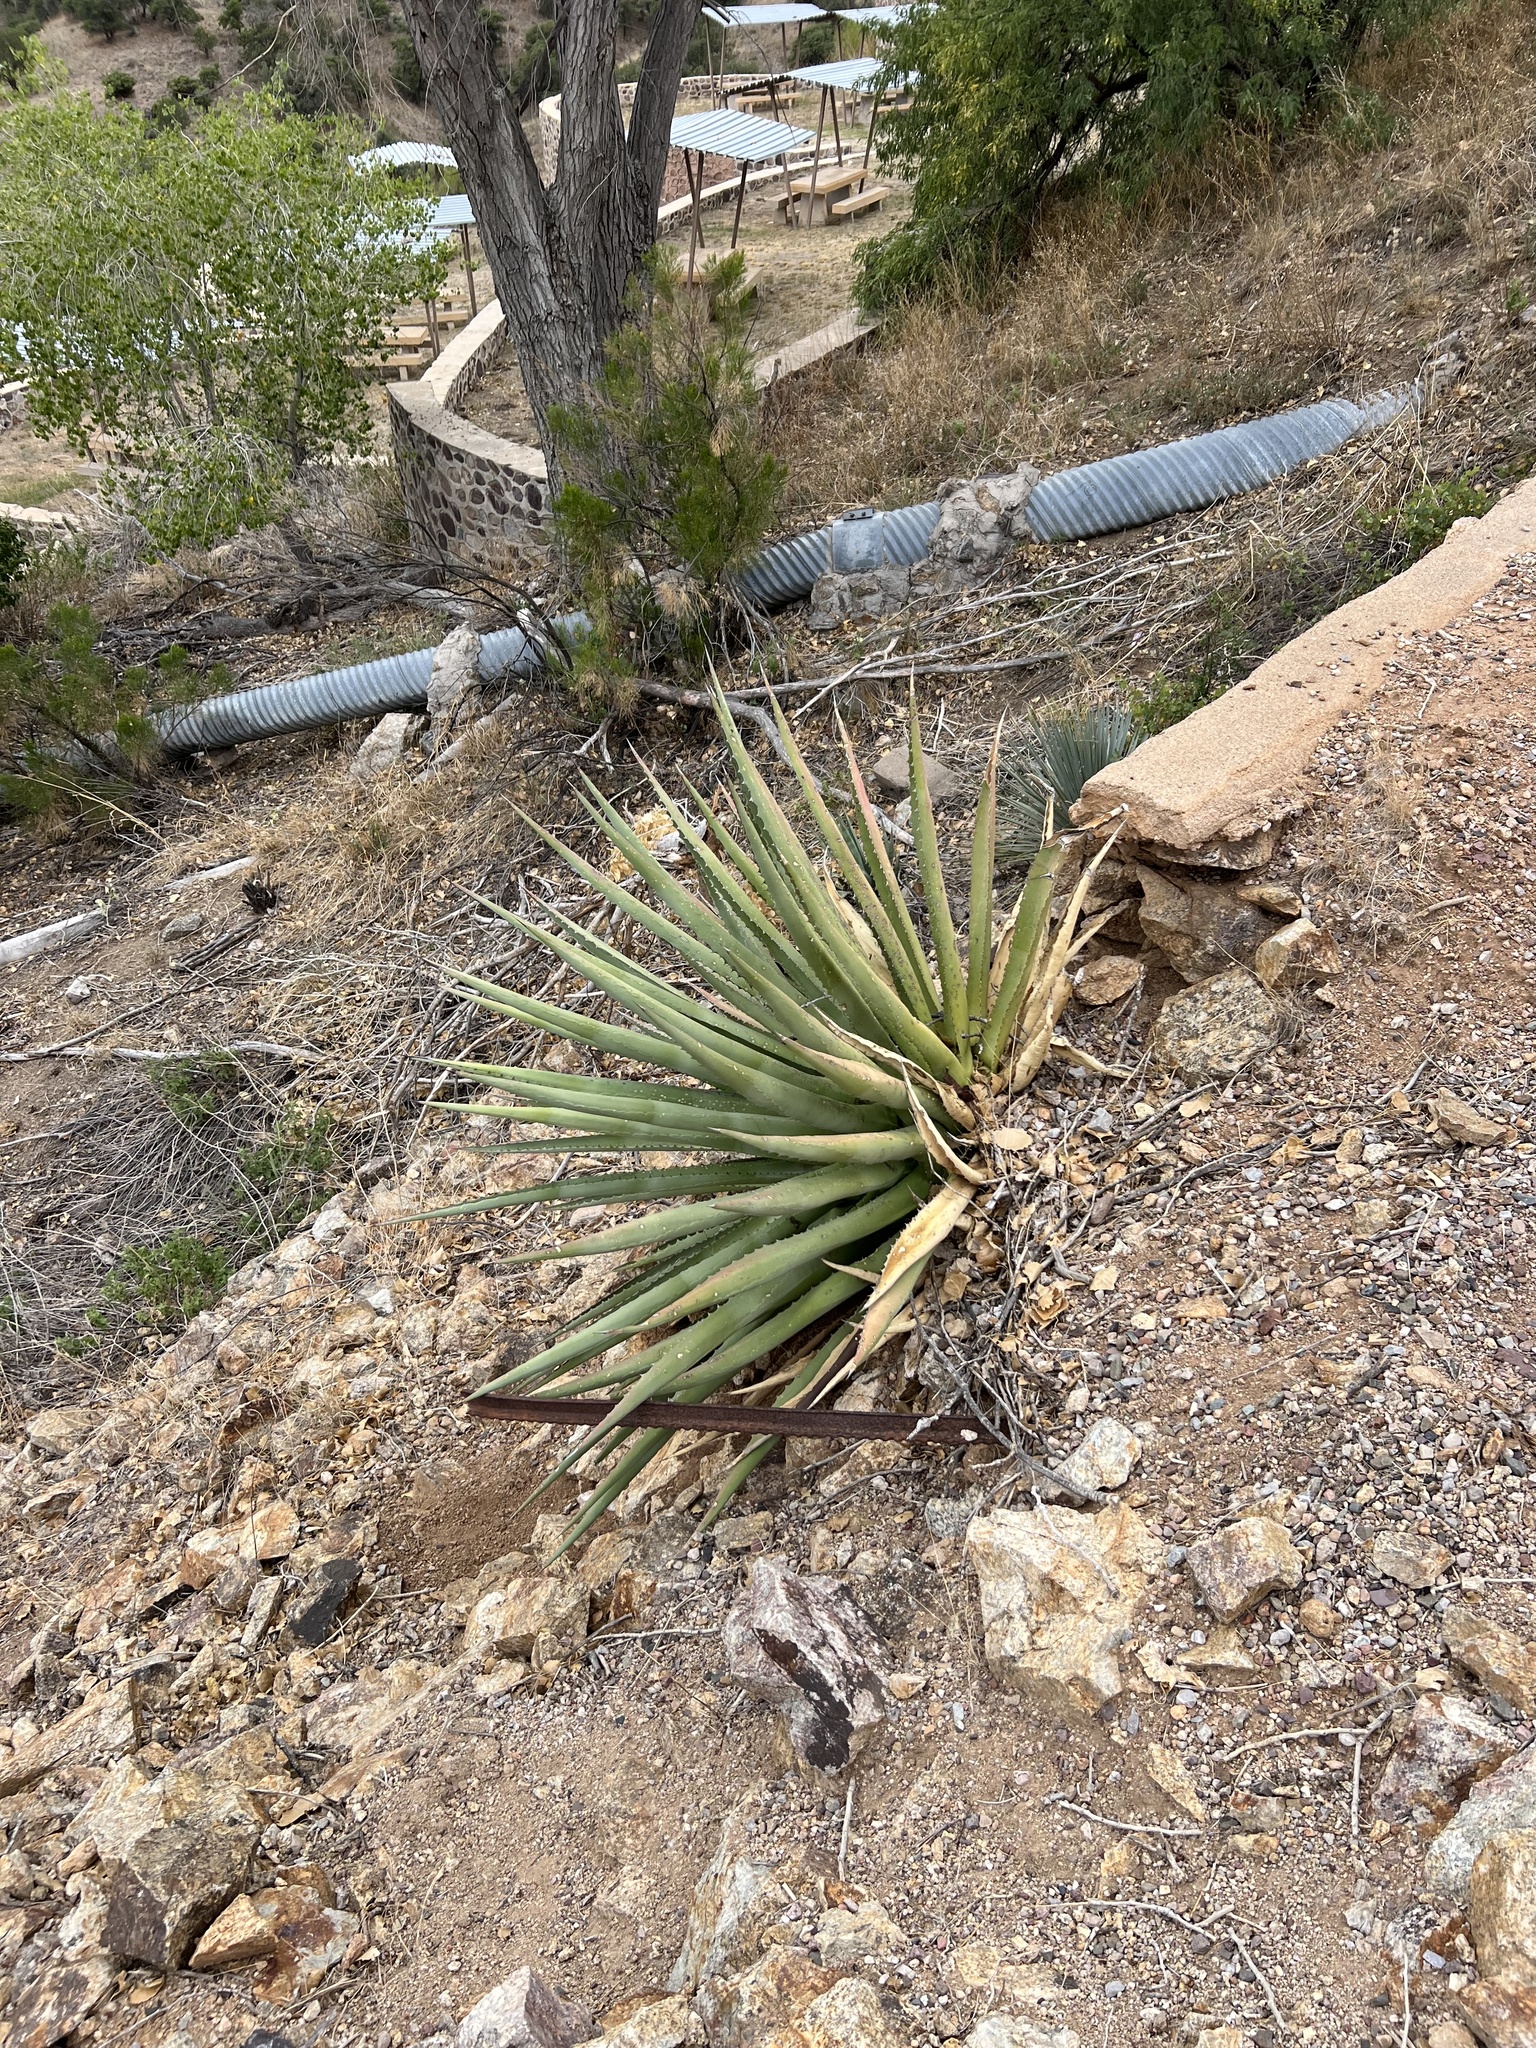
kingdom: Plantae
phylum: Tracheophyta
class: Liliopsida
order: Asparagales
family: Asparagaceae
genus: Agave
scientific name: Agave palmeri
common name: Palmer agave
